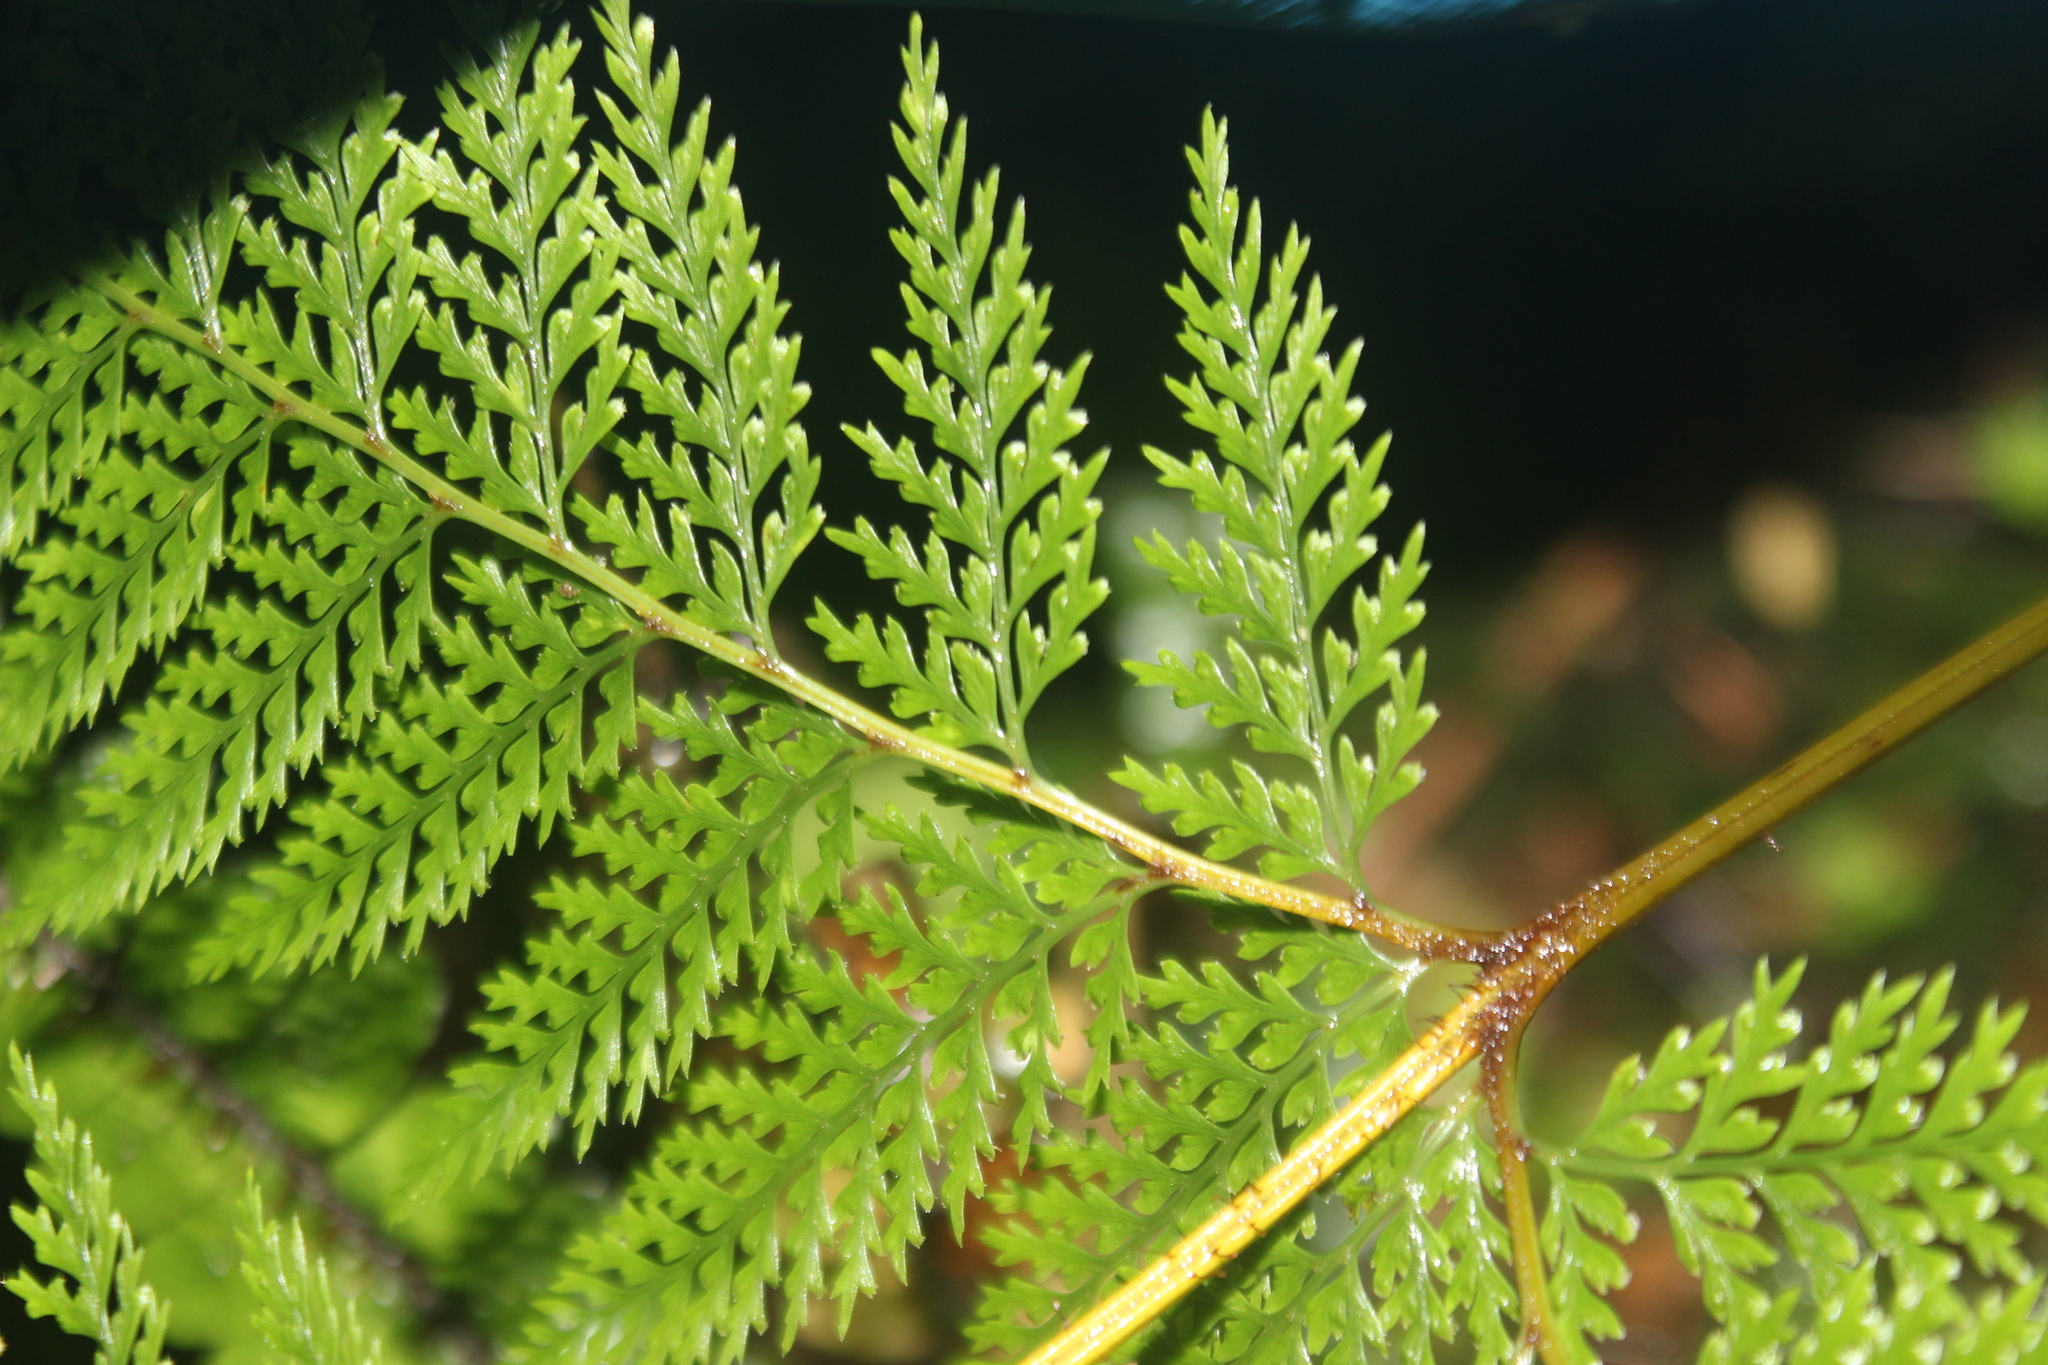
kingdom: Plantae
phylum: Tracheophyta
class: Polypodiopsida
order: Polypodiales
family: Dennstaedtiaceae
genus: Dennstaedtia
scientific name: Dennstaedtia novae-zelandiae
